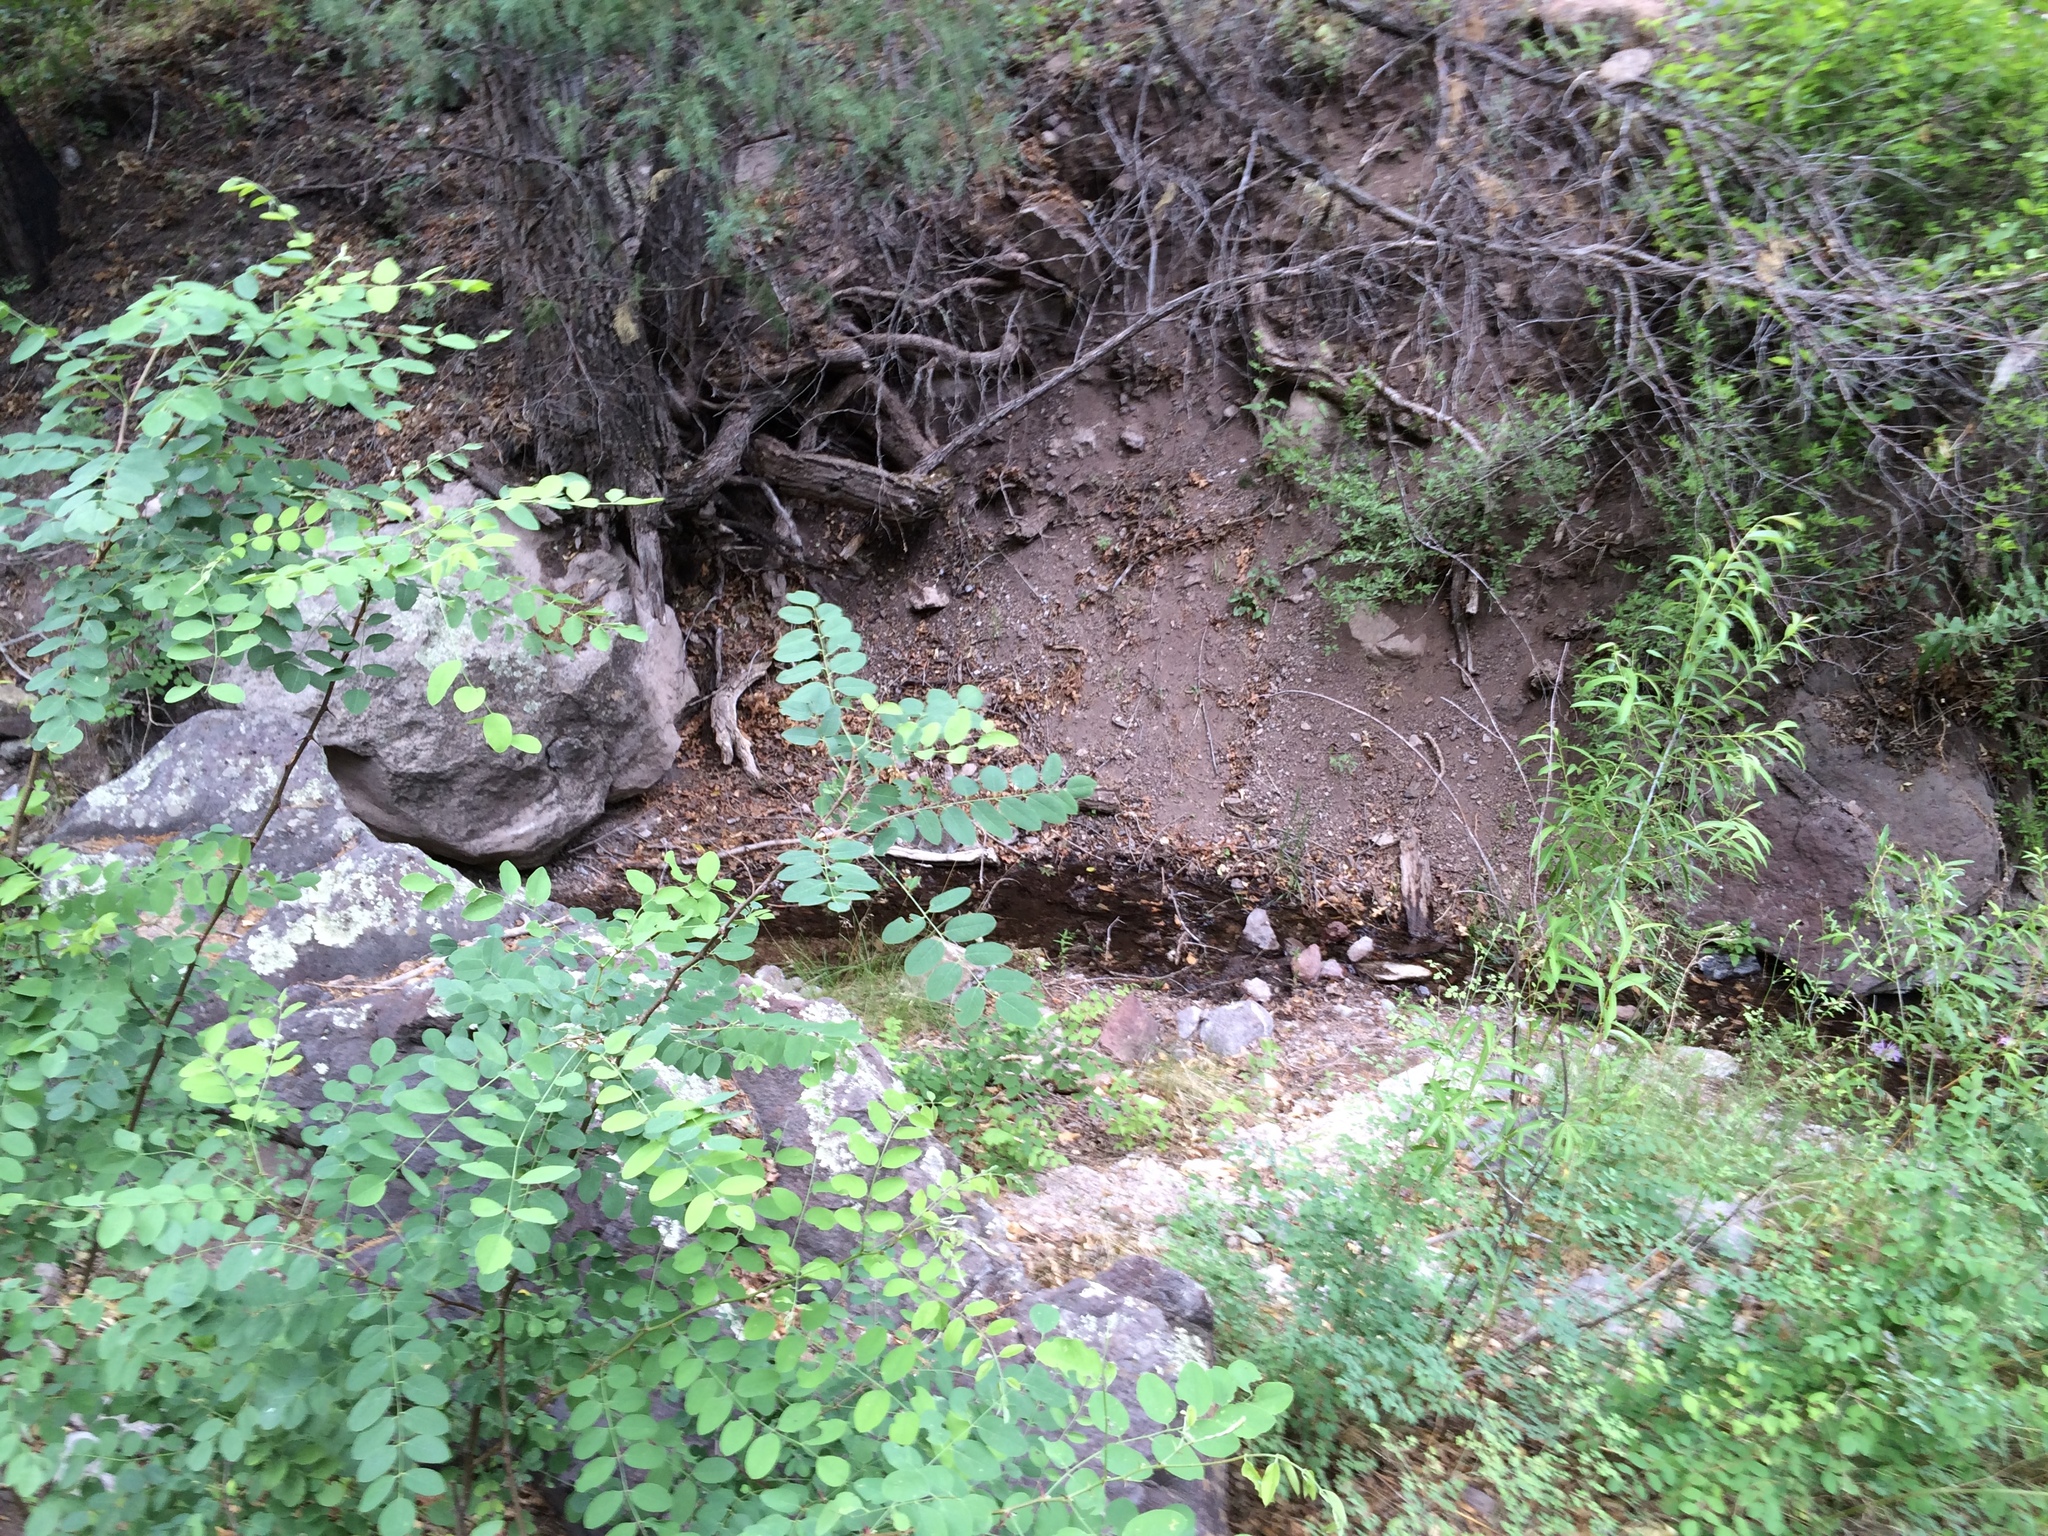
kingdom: Plantae
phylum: Tracheophyta
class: Magnoliopsida
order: Fabales
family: Fabaceae
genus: Robinia
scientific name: Robinia neomexicana
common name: New mexico locust
